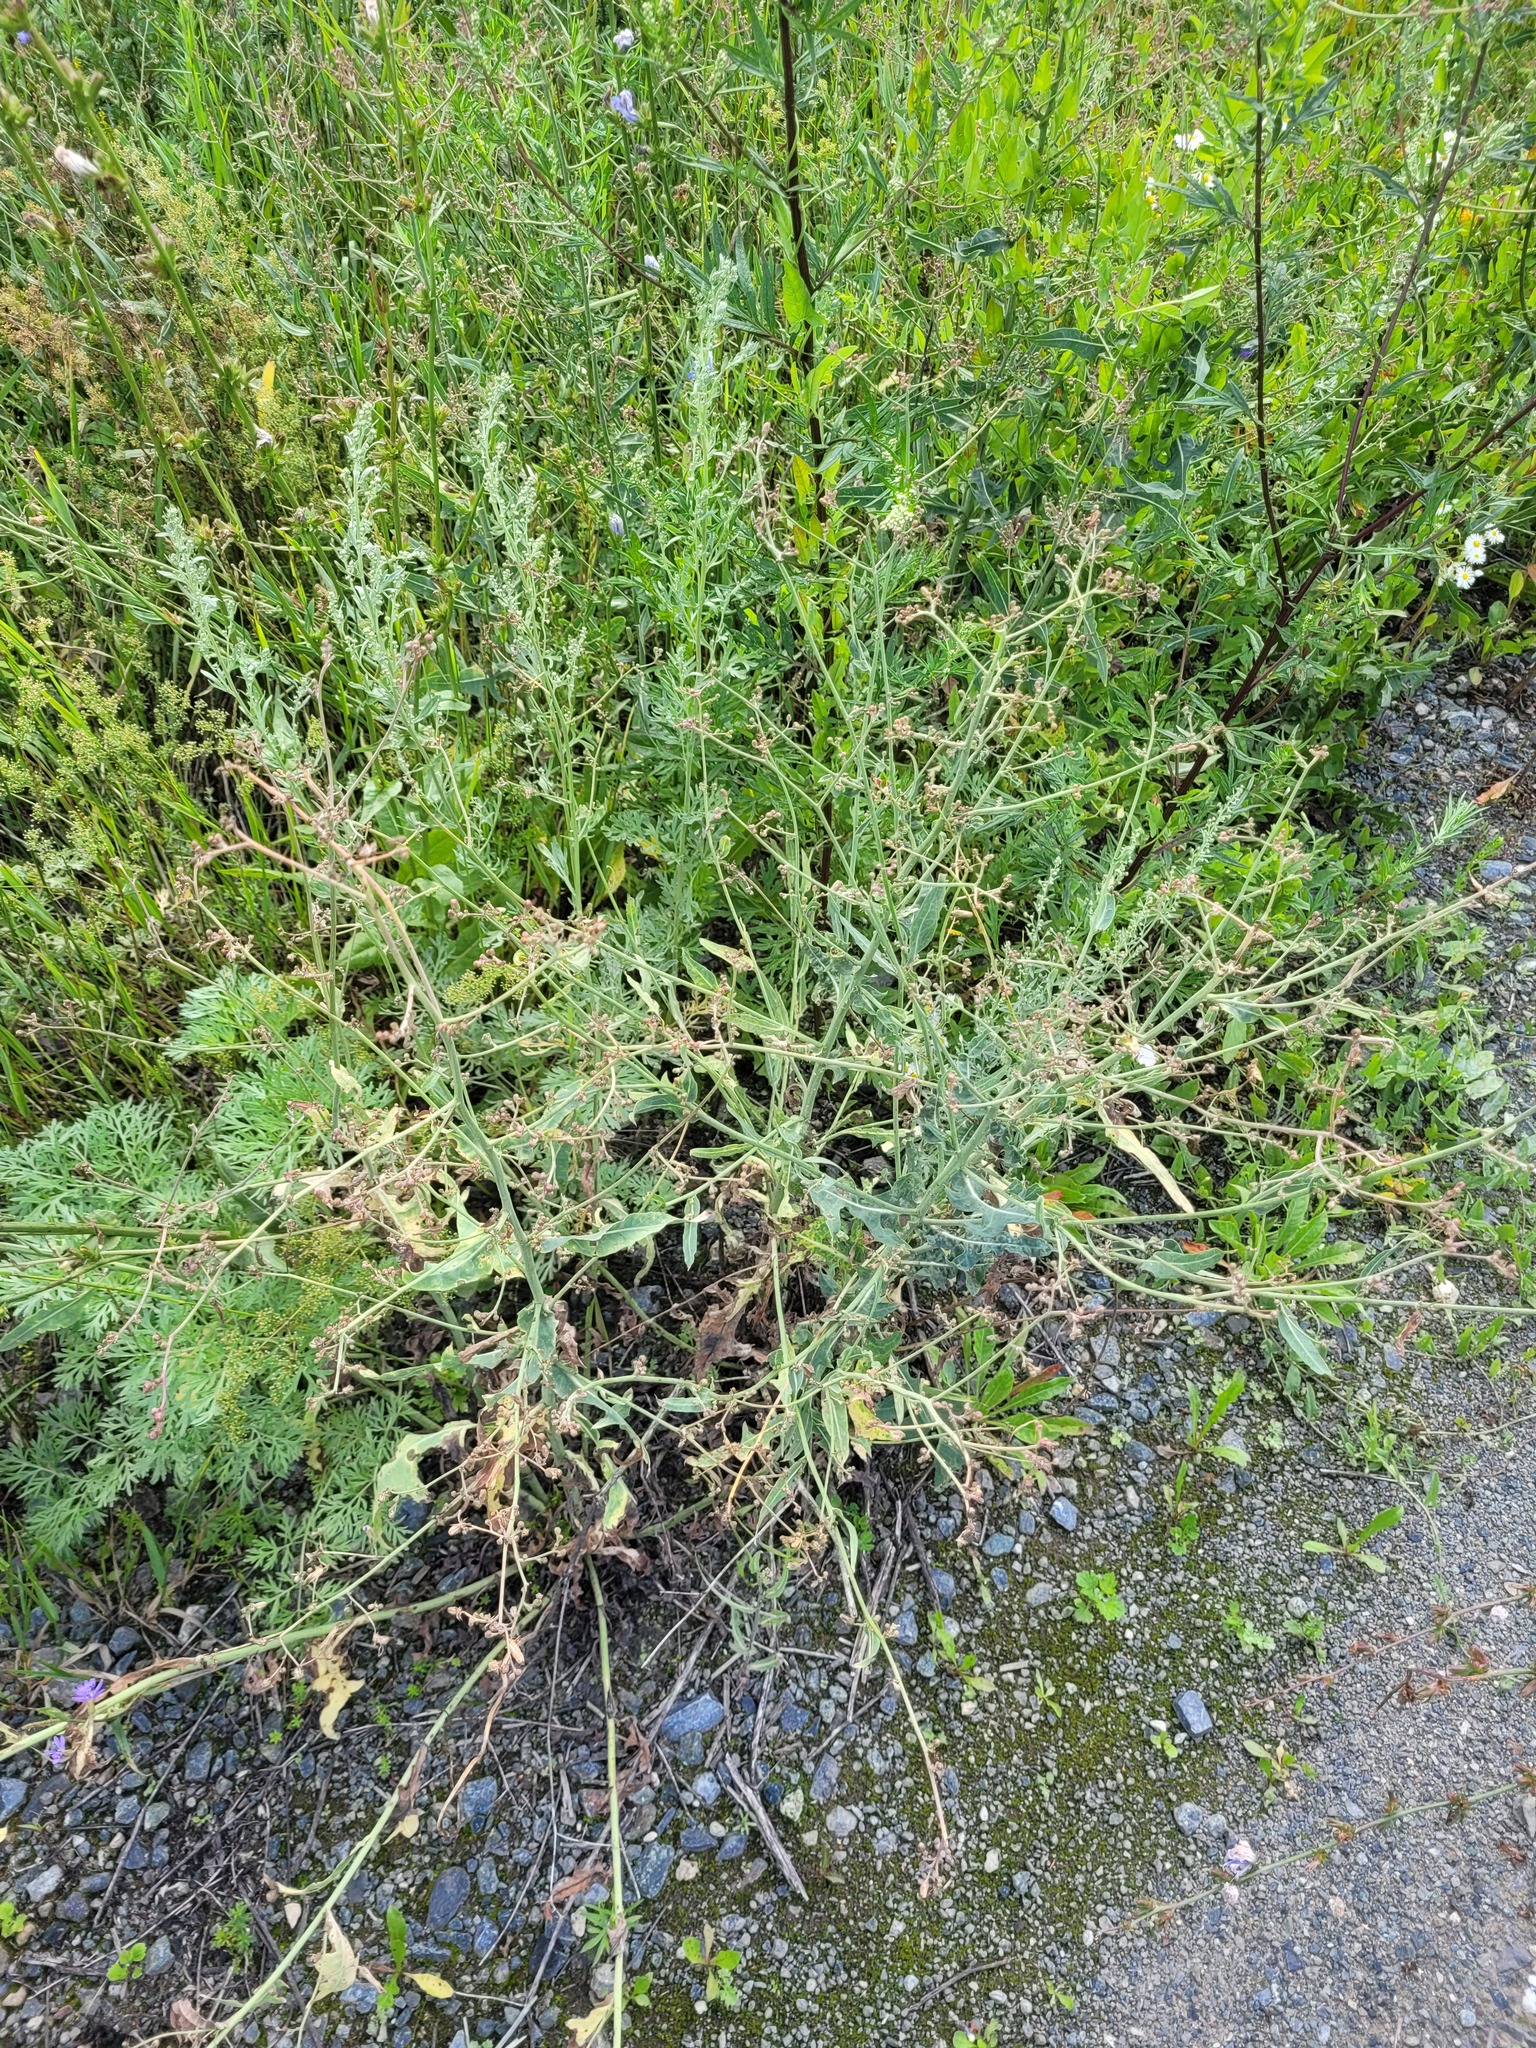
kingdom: Plantae
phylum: Tracheophyta
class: Magnoliopsida
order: Asterales
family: Asteraceae
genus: Lactuca
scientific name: Lactuca tatarica
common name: Blue lettuce
